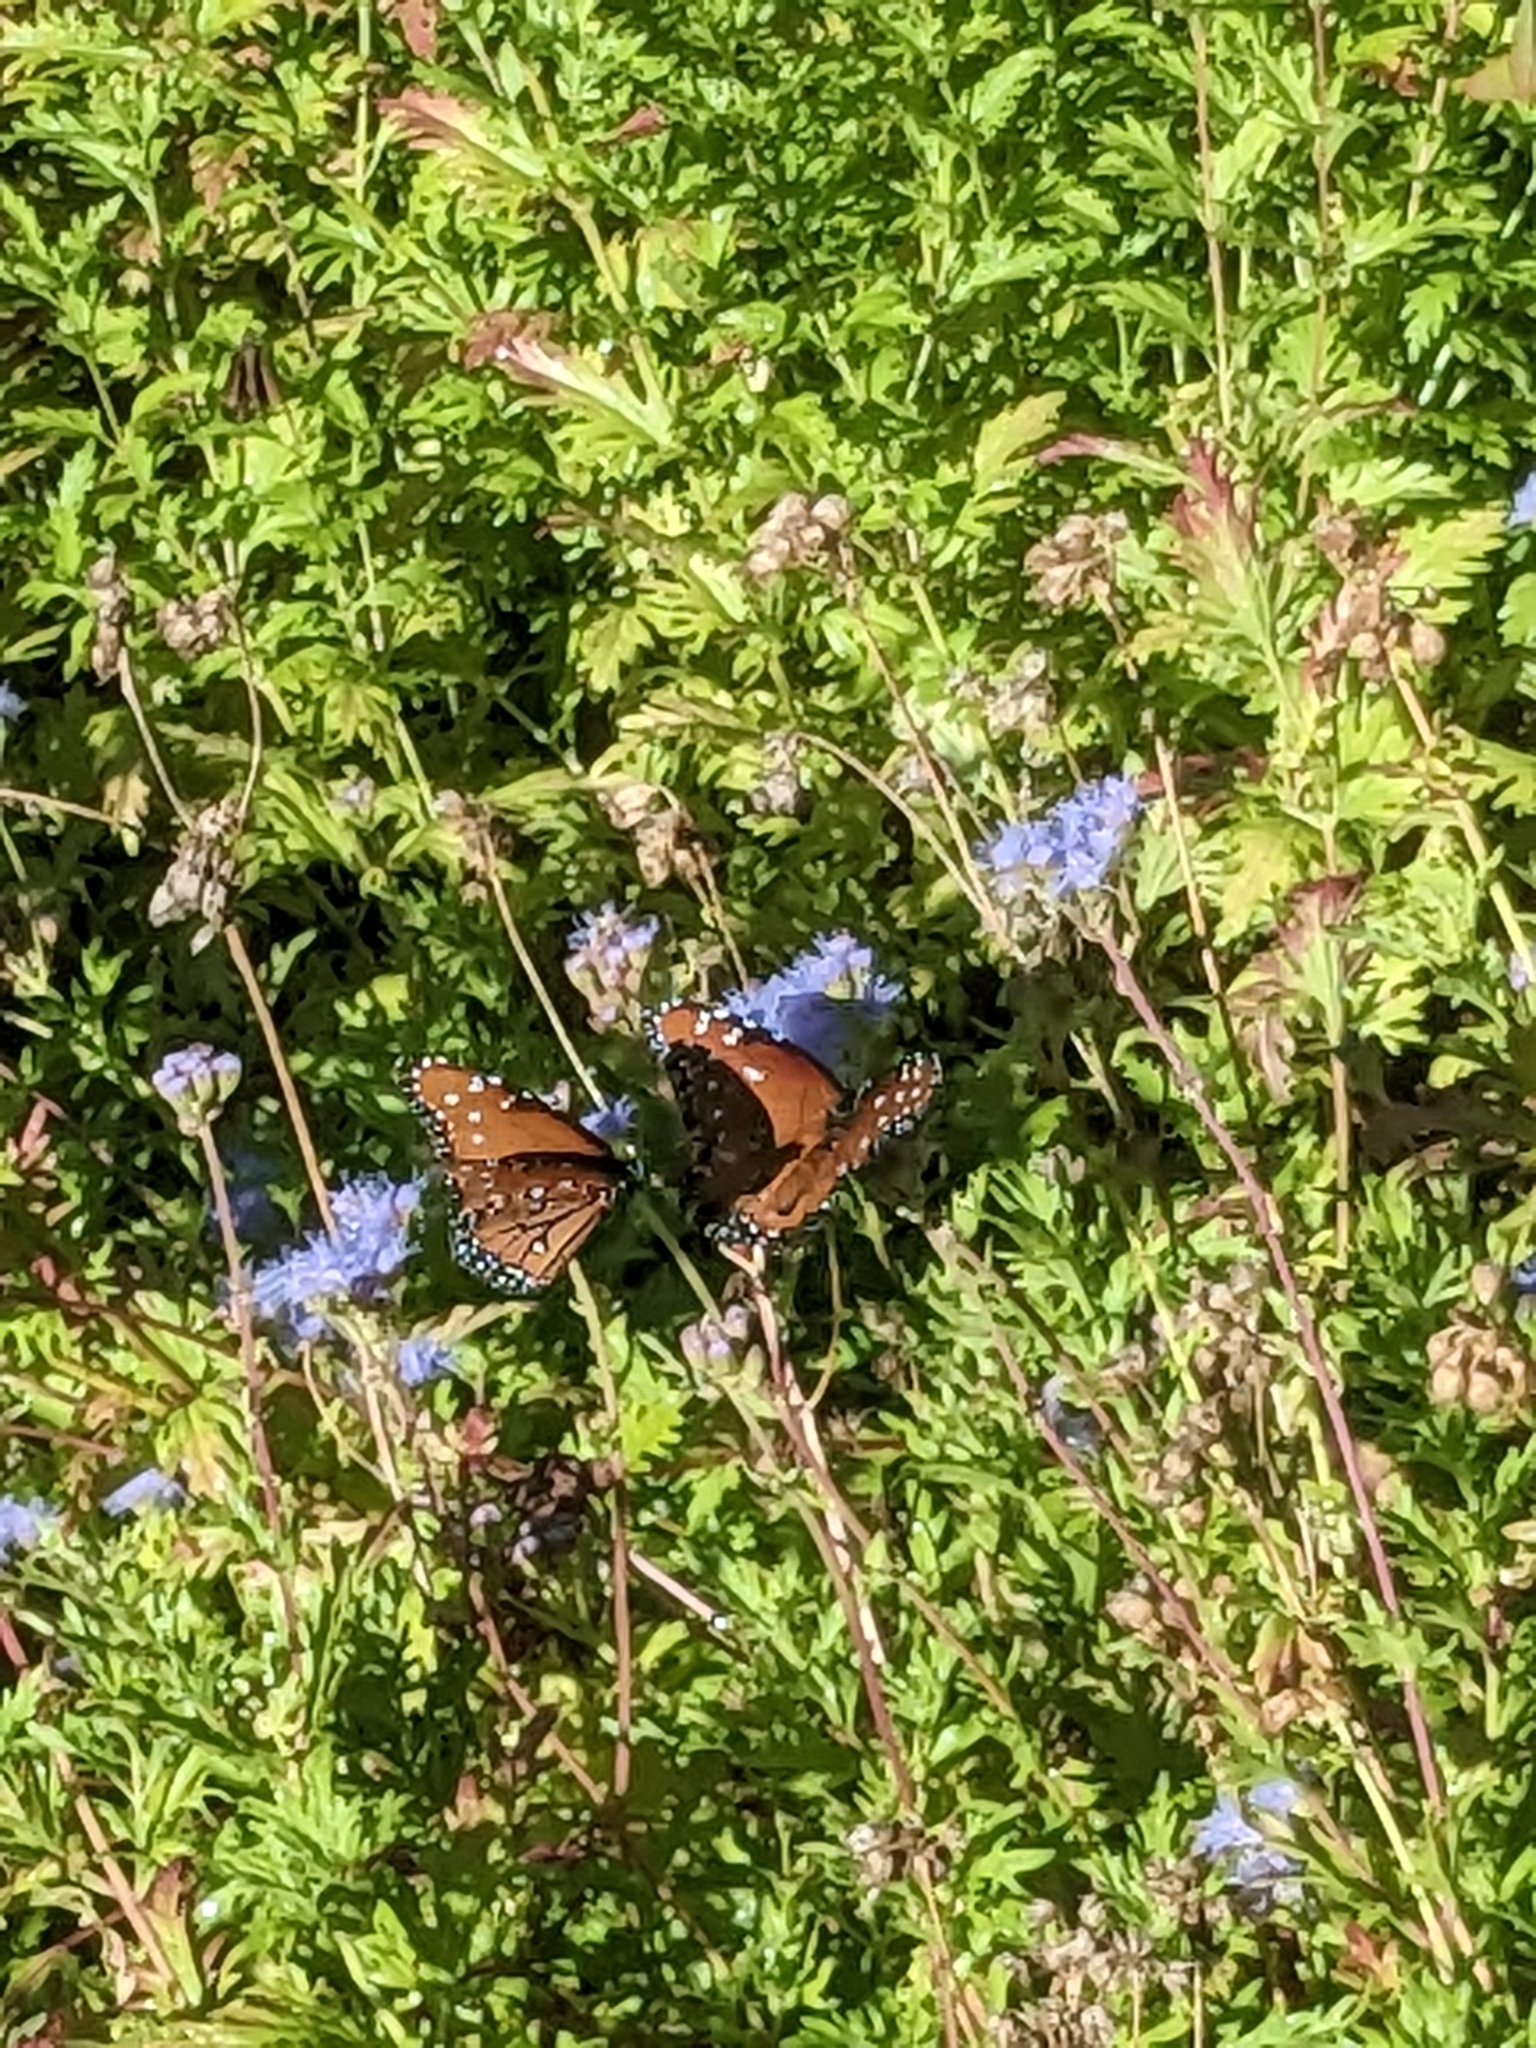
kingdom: Animalia
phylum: Arthropoda
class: Insecta
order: Lepidoptera
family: Nymphalidae
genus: Danaus
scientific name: Danaus gilippus
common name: Queen
